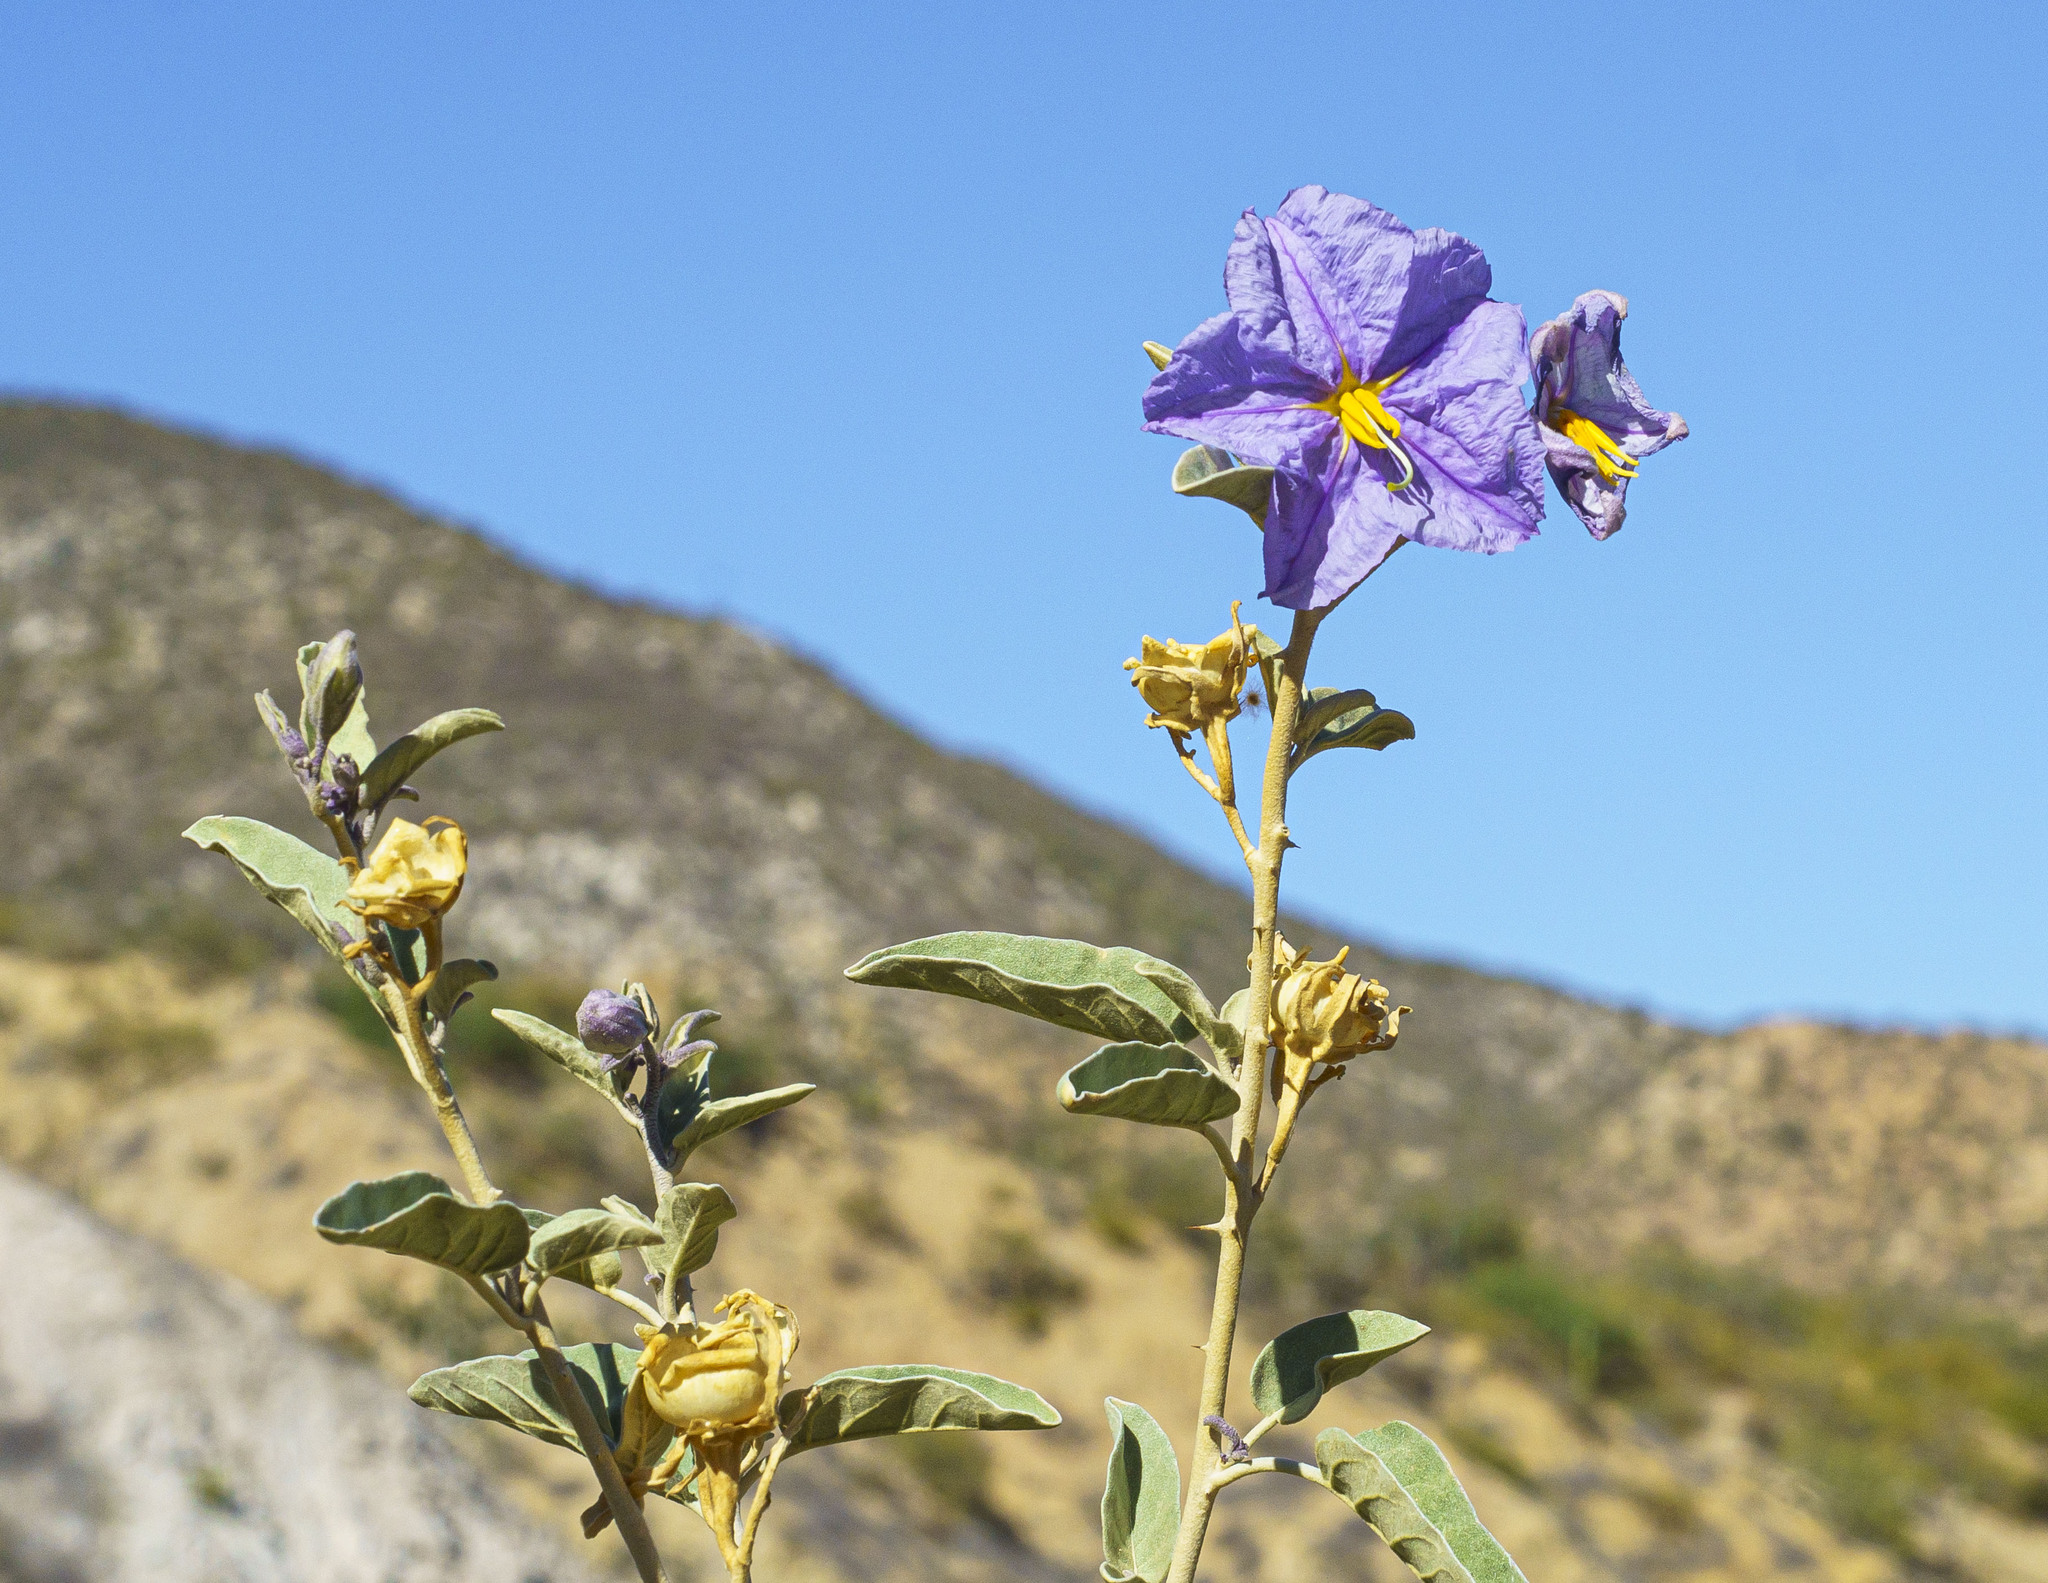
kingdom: Plantae
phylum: Tracheophyta
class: Magnoliopsida
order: Solanales
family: Solanaceae
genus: Solanum
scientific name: Solanum hindsianum
